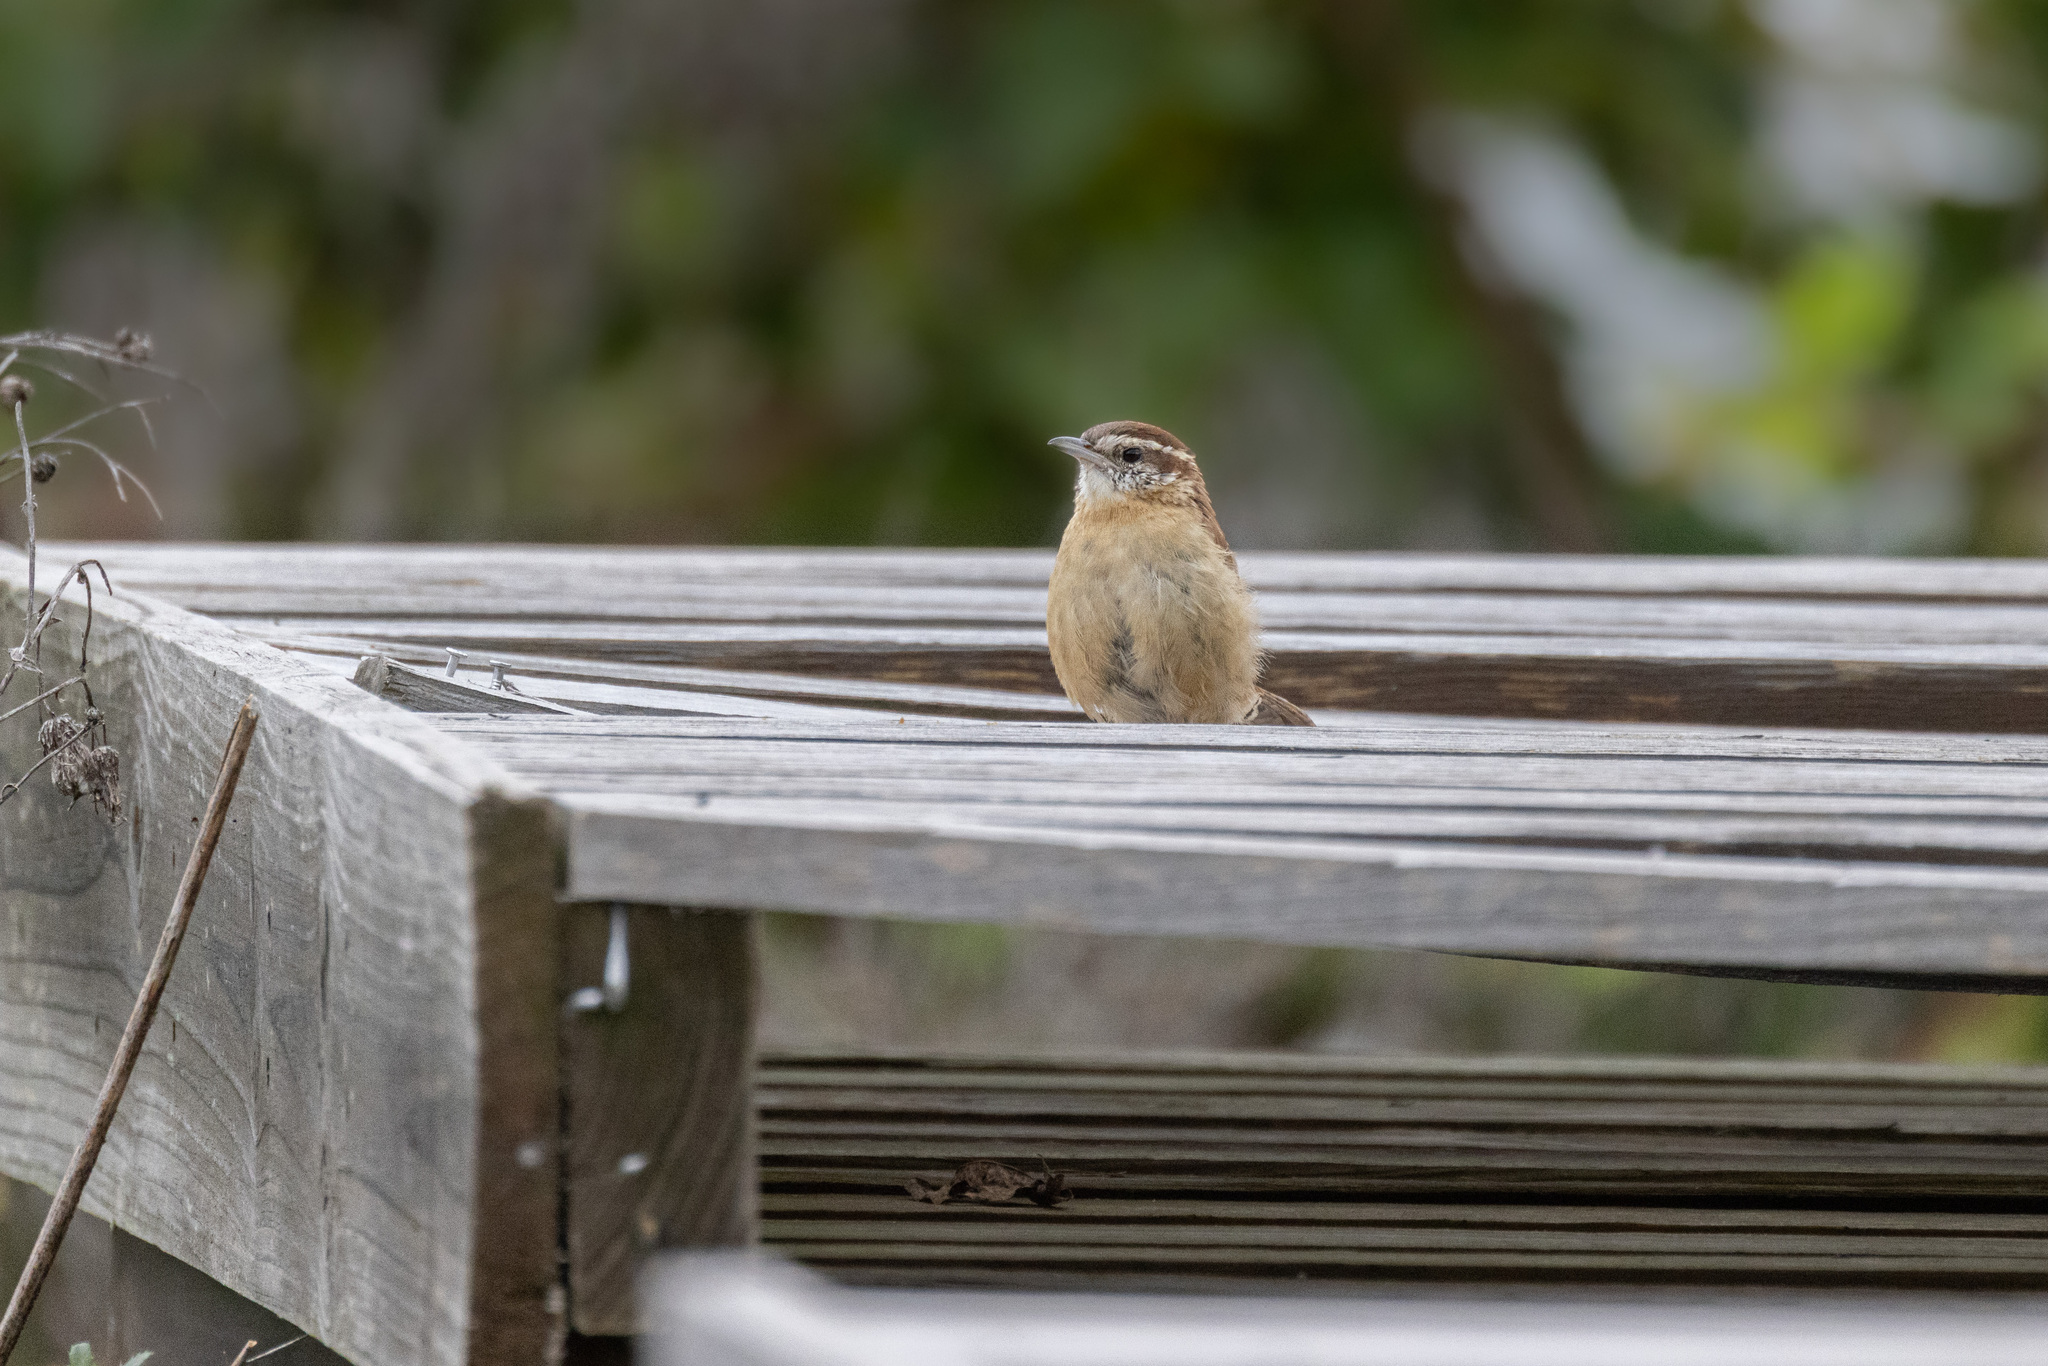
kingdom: Animalia
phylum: Chordata
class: Aves
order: Passeriformes
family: Troglodytidae
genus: Thryothorus
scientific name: Thryothorus ludovicianus
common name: Carolina wren
